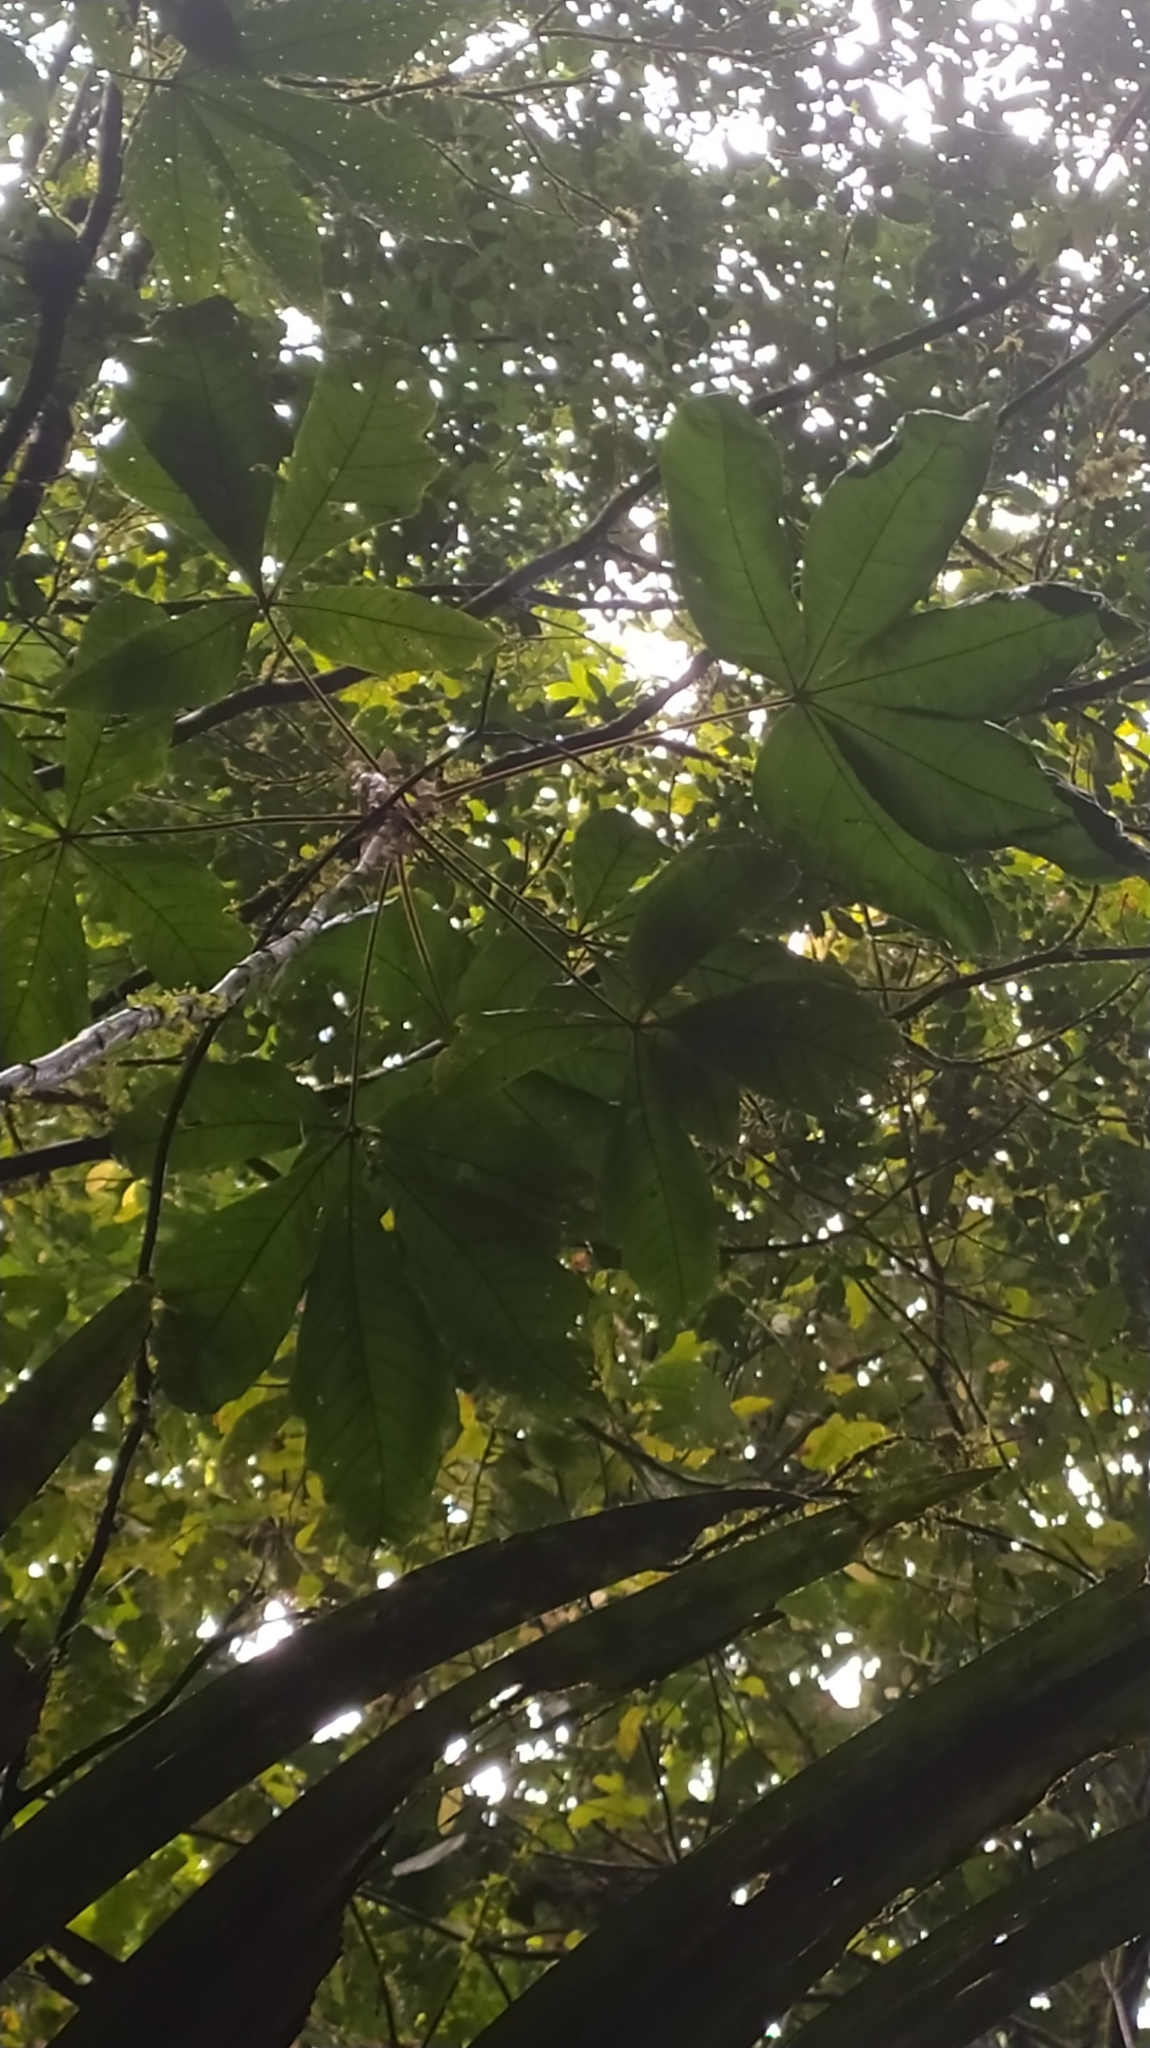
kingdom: Plantae
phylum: Tracheophyta
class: Magnoliopsida
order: Malvales
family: Malvaceae
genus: Herrania
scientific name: Herrania kanukuensis
